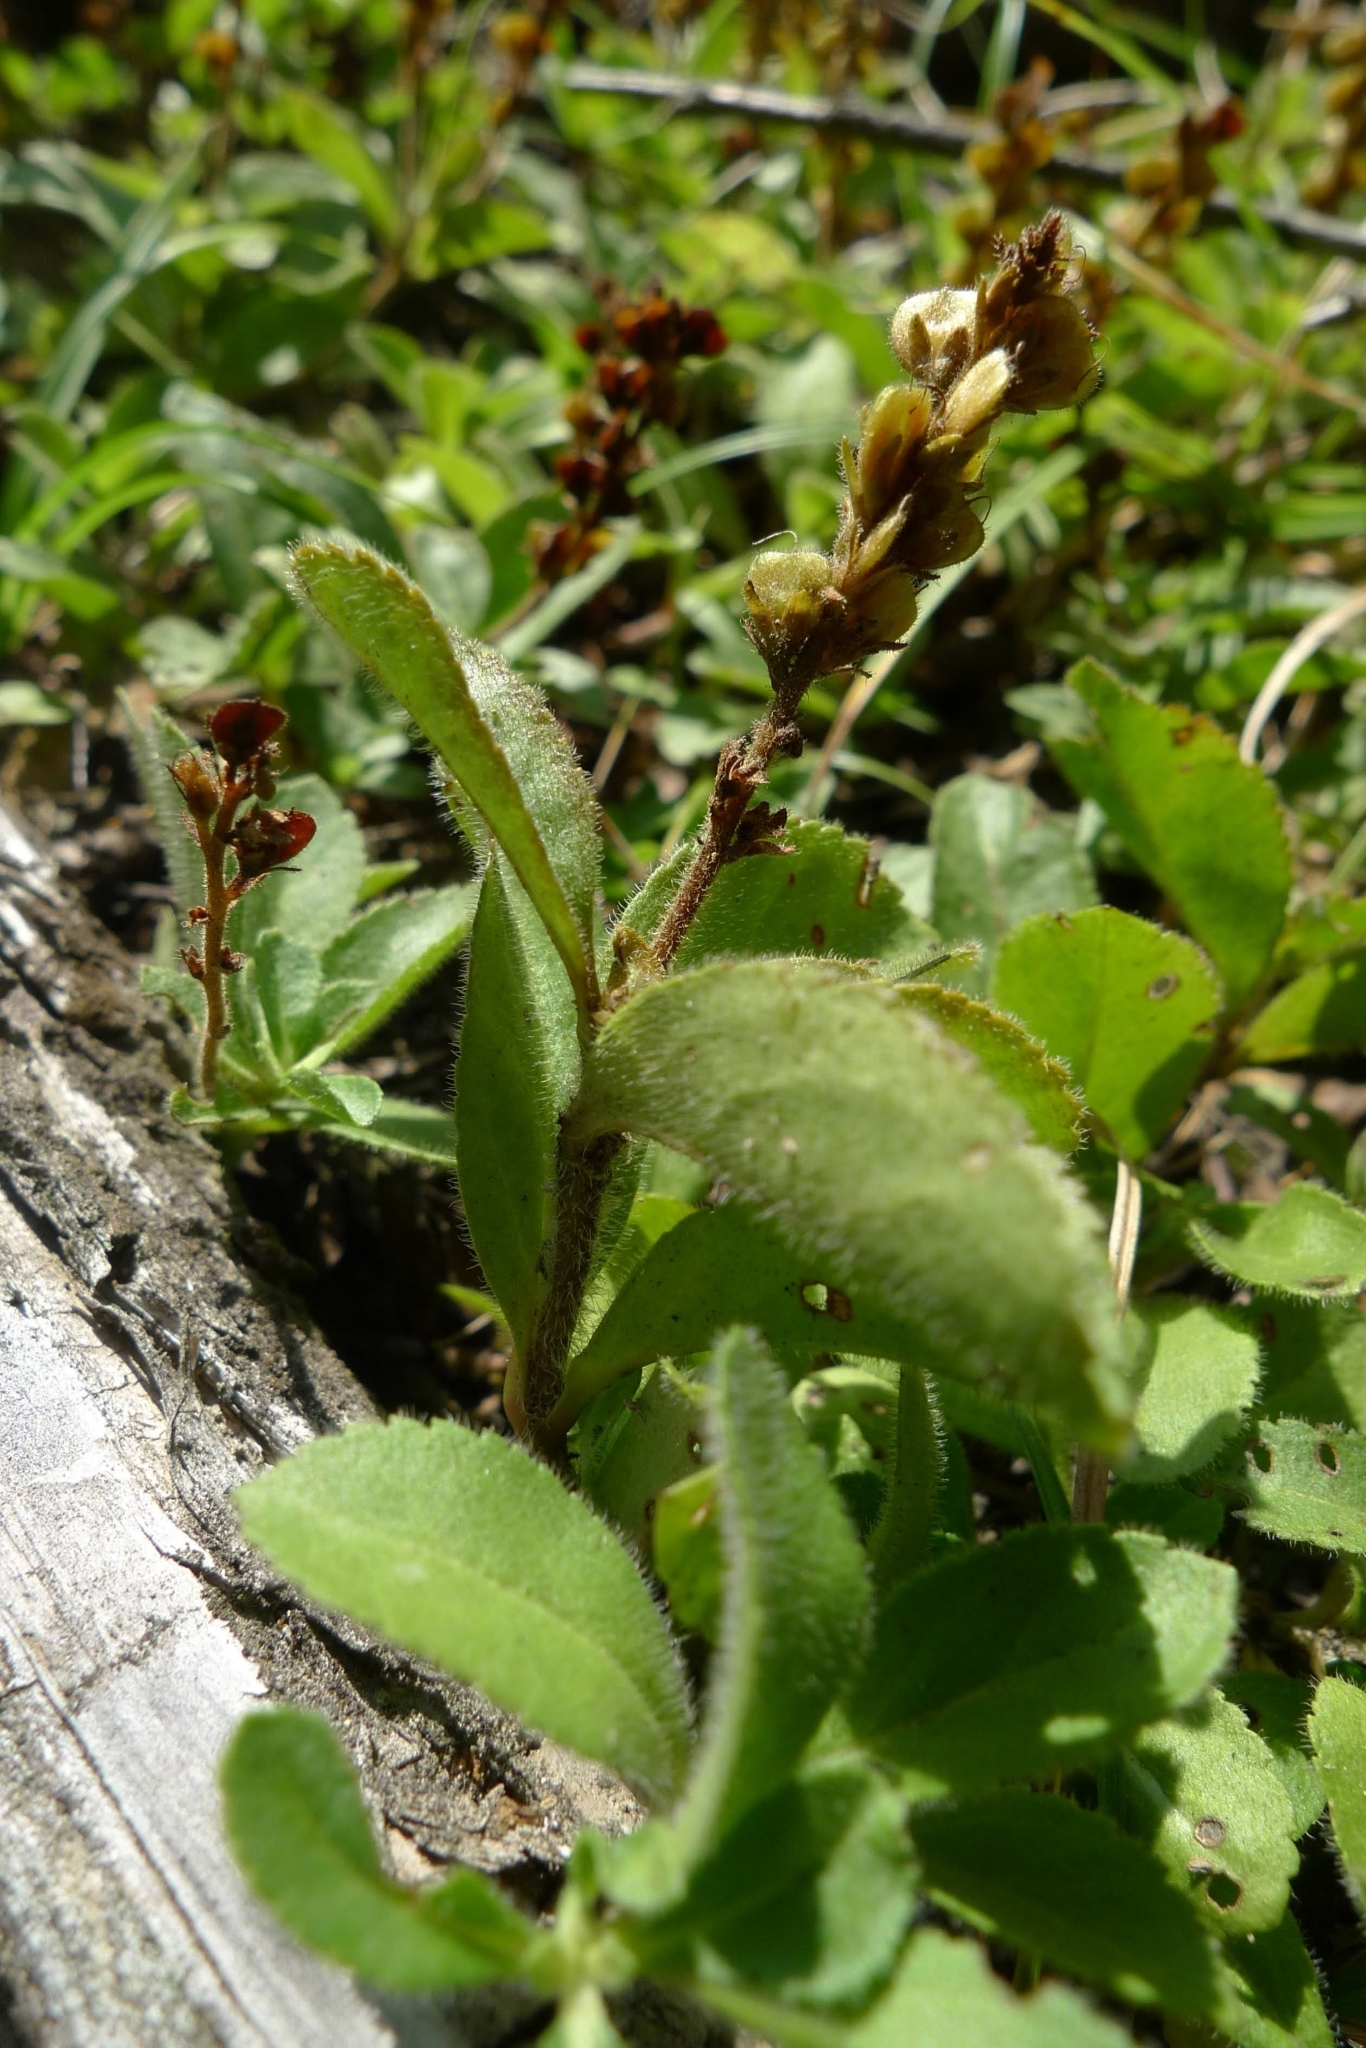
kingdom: Plantae
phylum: Tracheophyta
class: Magnoliopsida
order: Lamiales
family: Plantaginaceae
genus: Veronica
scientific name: Veronica officinalis
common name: Common speedwell
